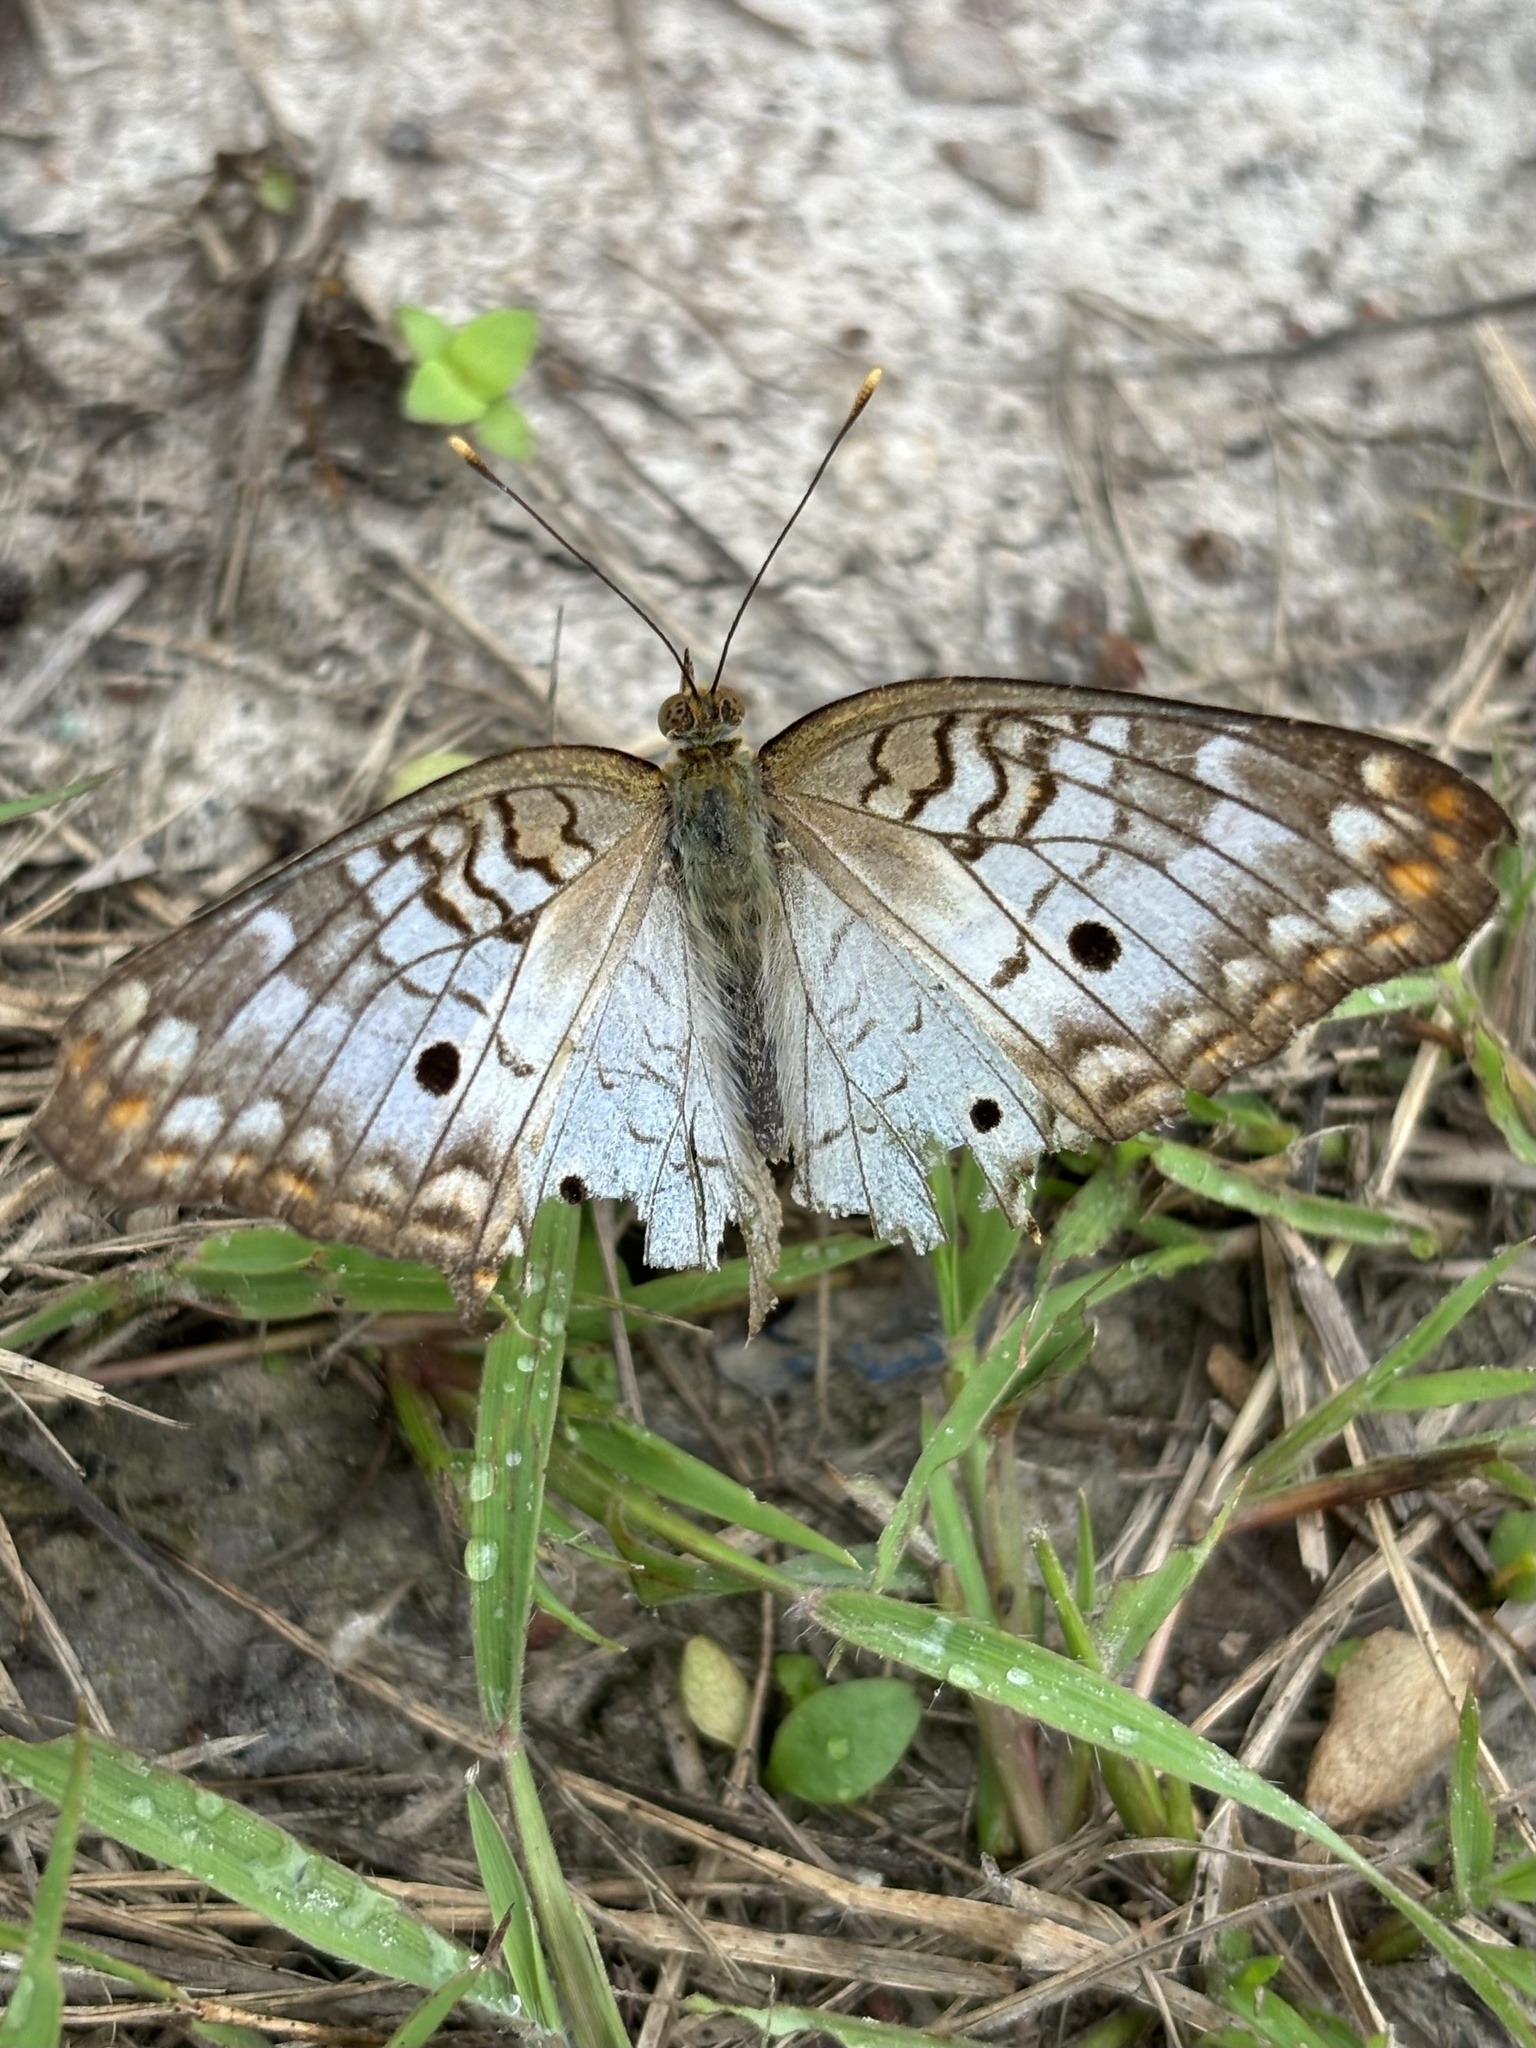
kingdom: Animalia
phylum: Arthropoda
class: Insecta
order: Lepidoptera
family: Nymphalidae
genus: Anartia
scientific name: Anartia jatrophae
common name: White peacock
